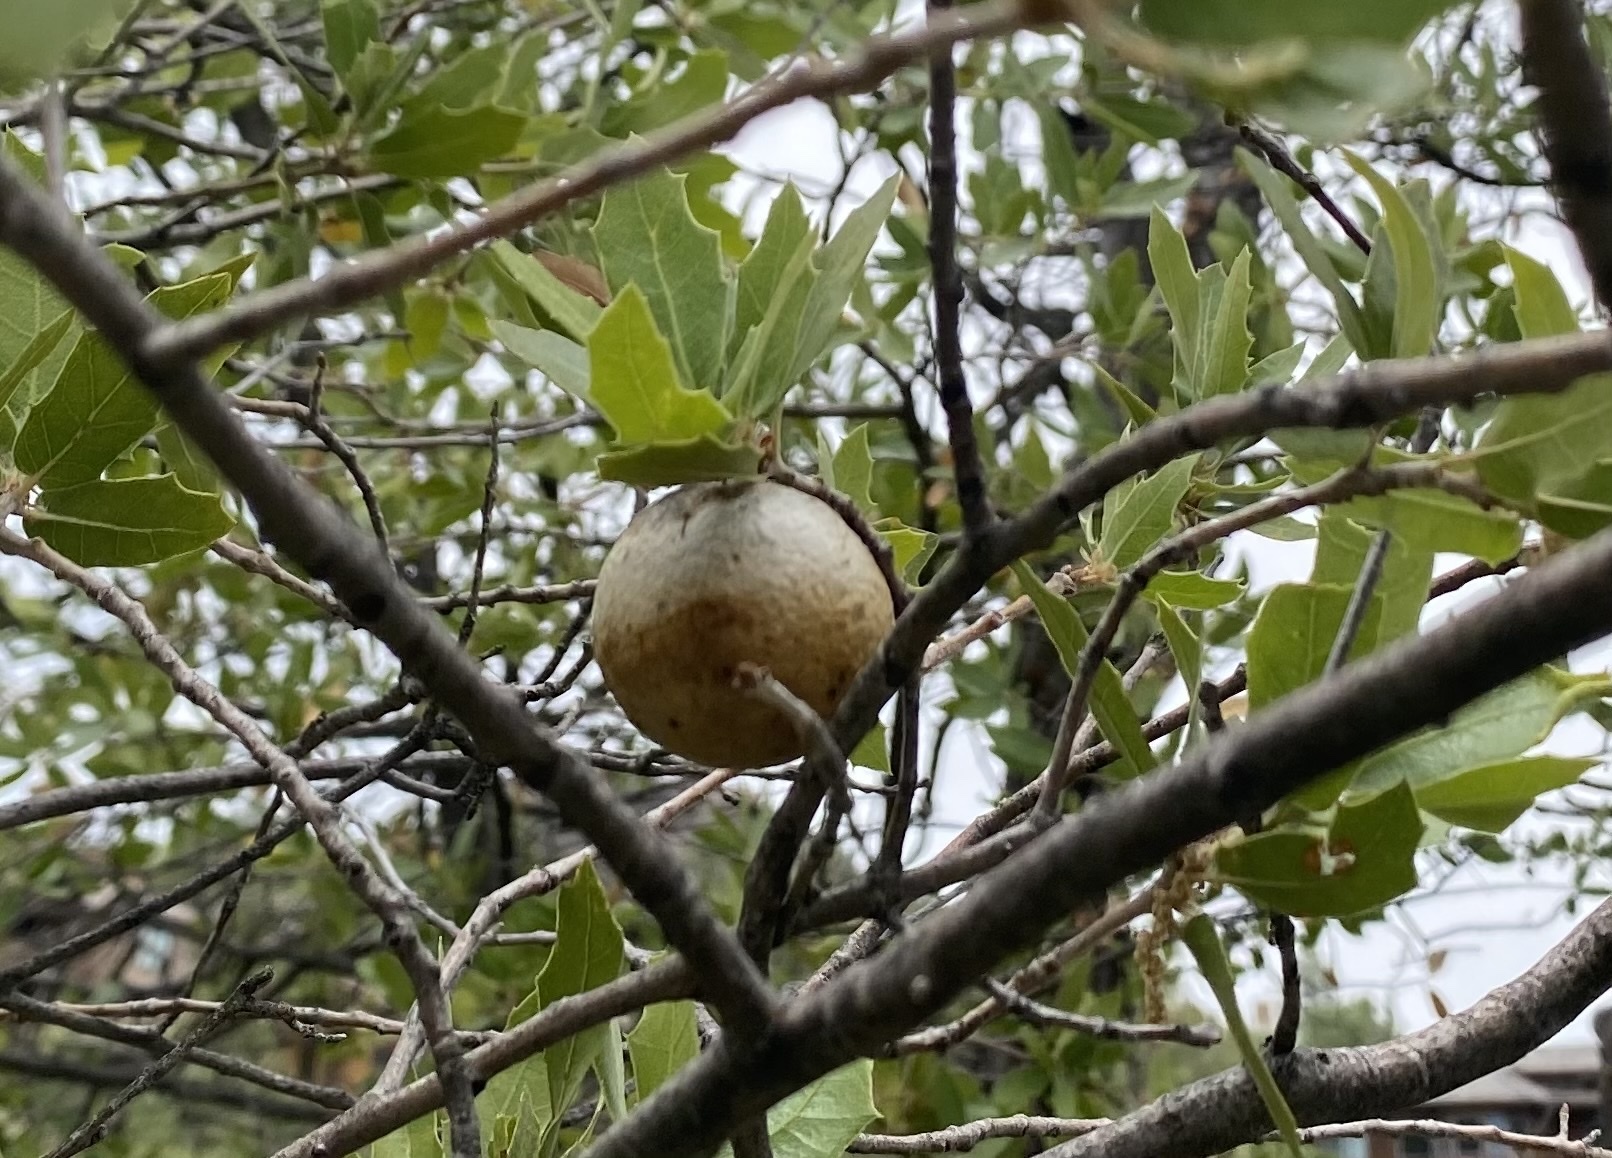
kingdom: Animalia
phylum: Arthropoda
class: Insecta
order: Hymenoptera
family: Cynipidae
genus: Amphibolips
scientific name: Amphibolips
